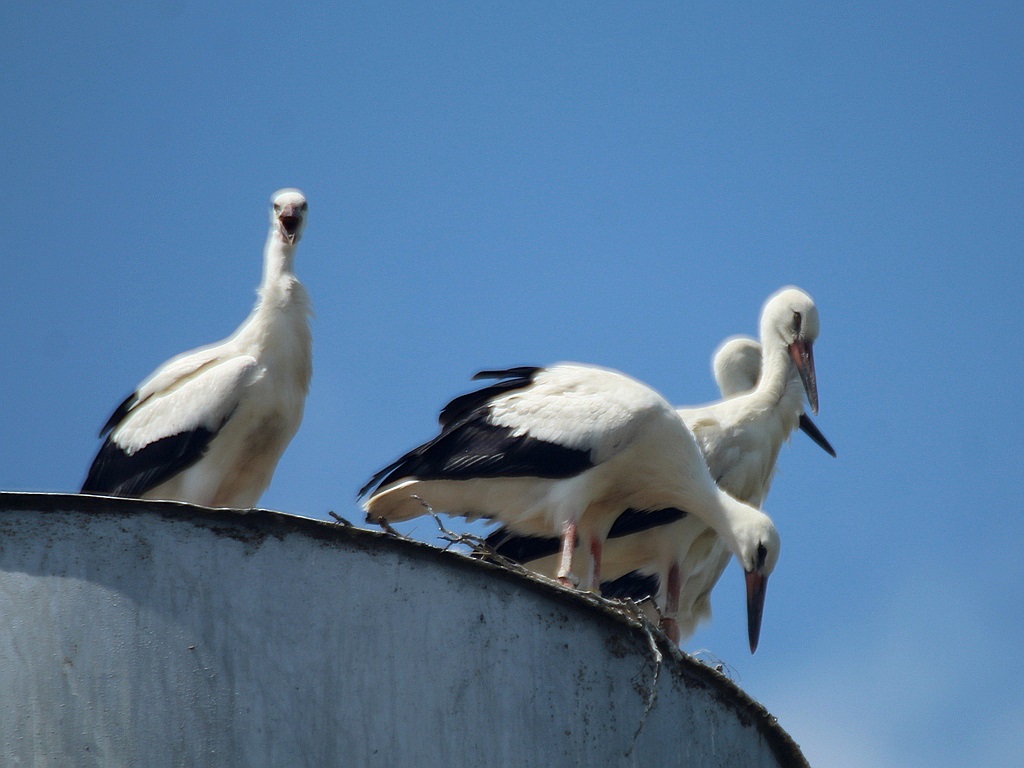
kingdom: Animalia
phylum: Chordata
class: Aves
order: Ciconiiformes
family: Ciconiidae
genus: Ciconia
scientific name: Ciconia ciconia
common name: White stork
